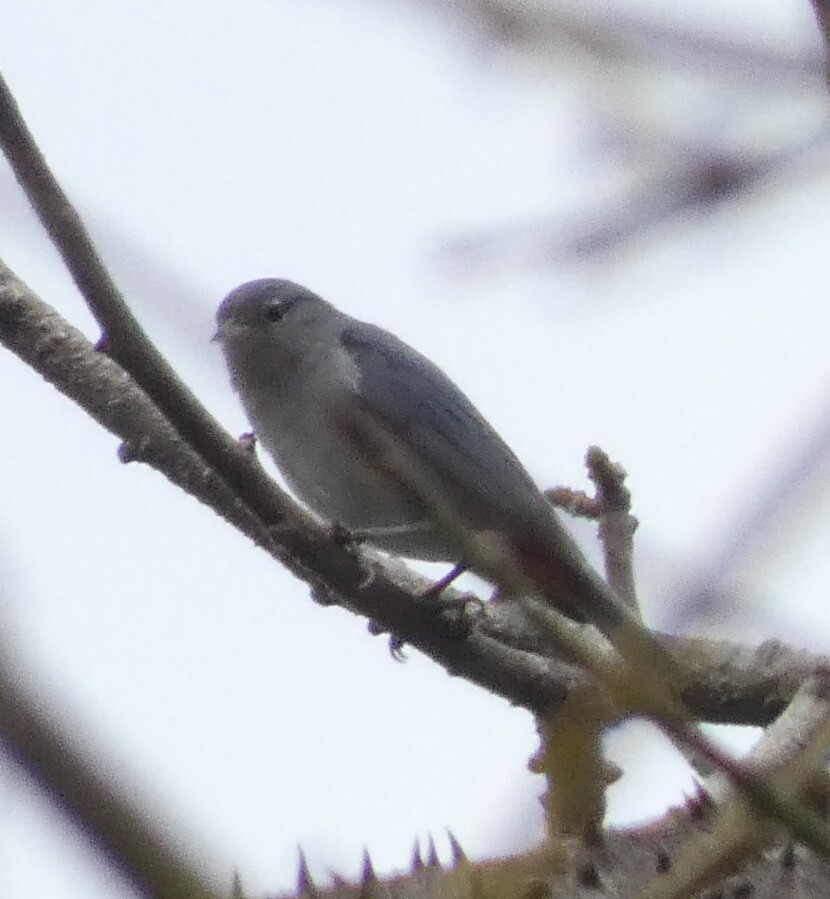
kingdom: Animalia
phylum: Chordata
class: Aves
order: Passeriformes
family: Thraupidae
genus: Conirostrum
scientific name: Conirostrum speciosum
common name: Chestnut-vented conebill
